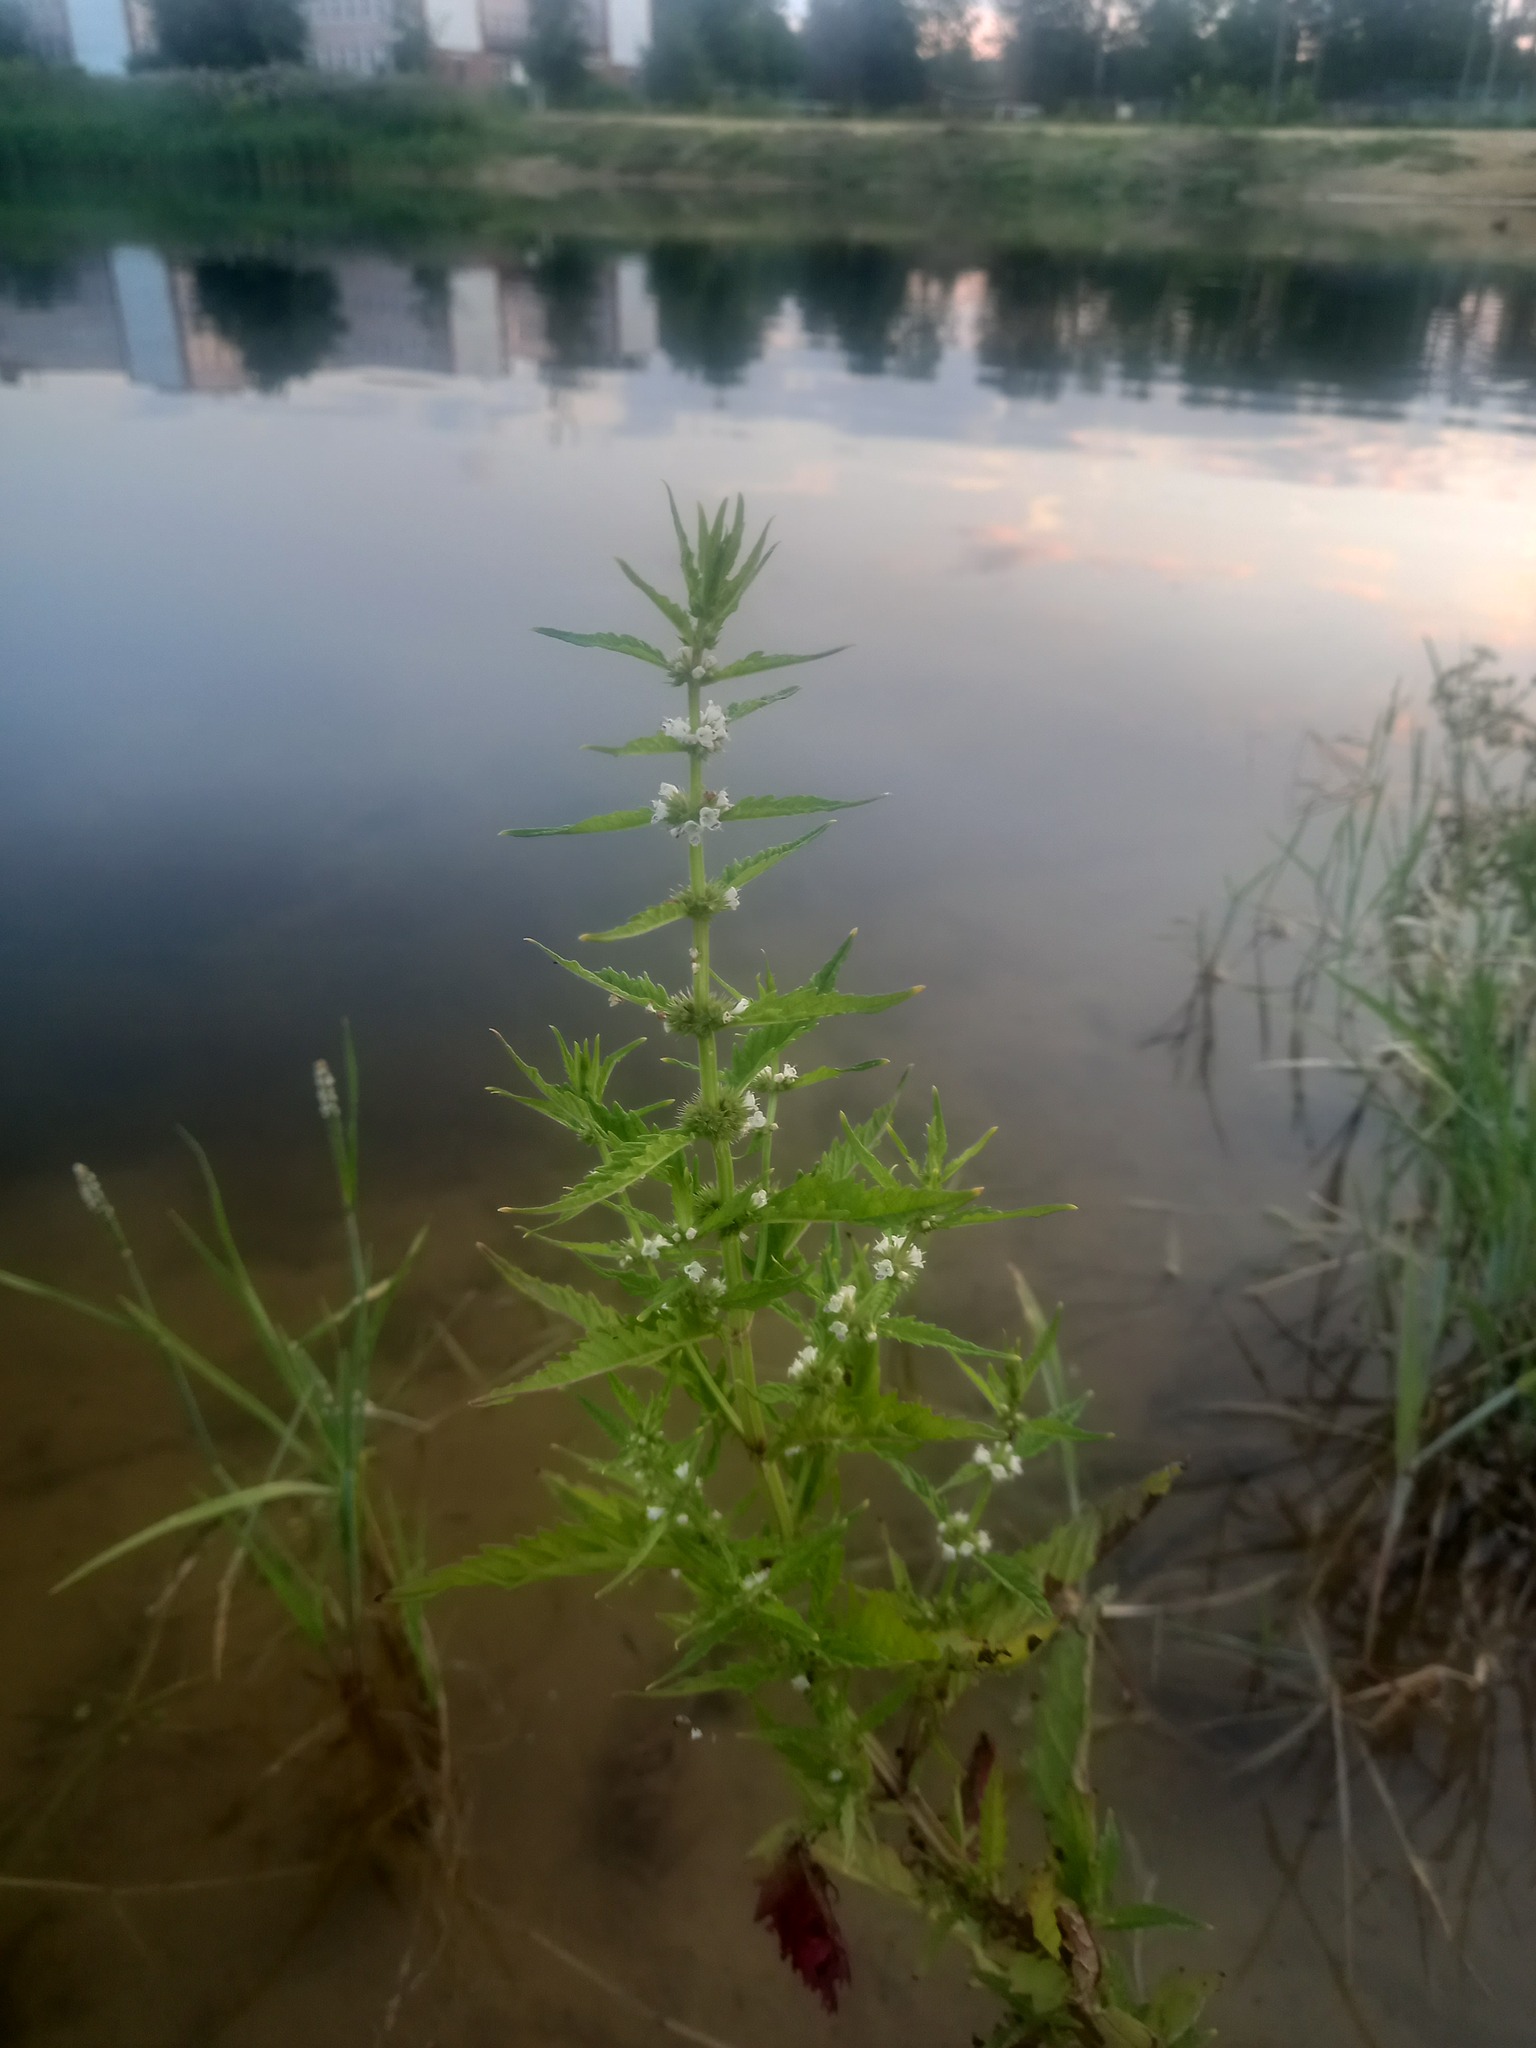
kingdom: Plantae
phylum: Tracheophyta
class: Magnoliopsida
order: Lamiales
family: Lamiaceae
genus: Lycopus
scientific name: Lycopus europaeus
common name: European bugleweed
